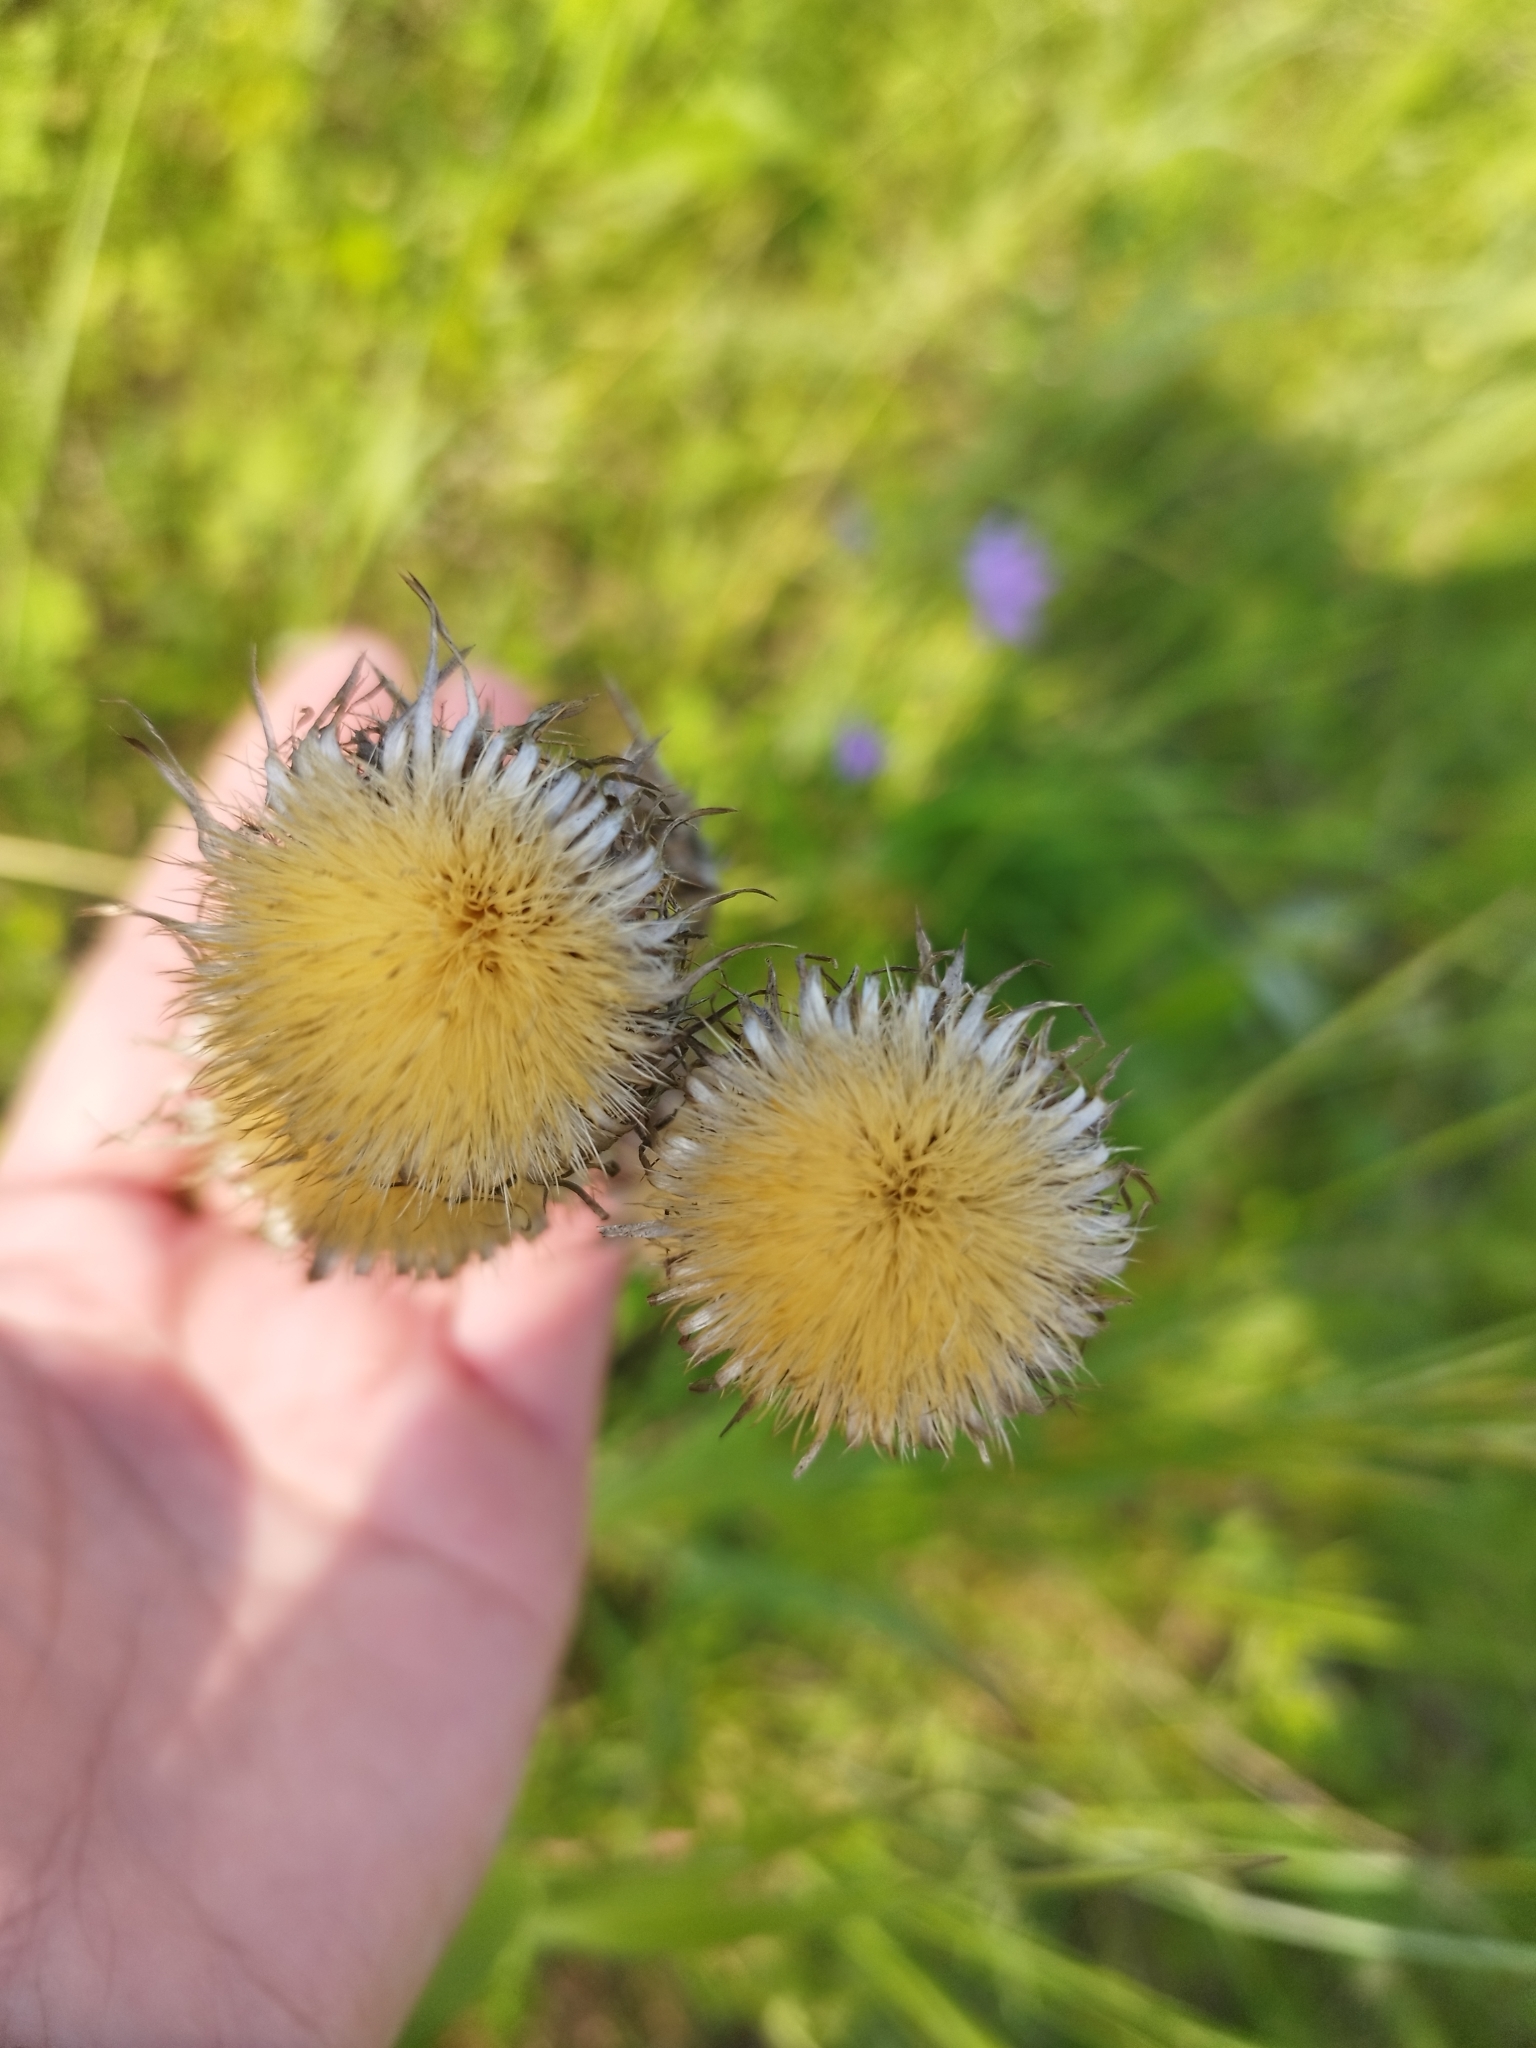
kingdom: Plantae
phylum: Tracheophyta
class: Magnoliopsida
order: Asterales
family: Asteraceae
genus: Carlina
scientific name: Carlina biebersteinii
